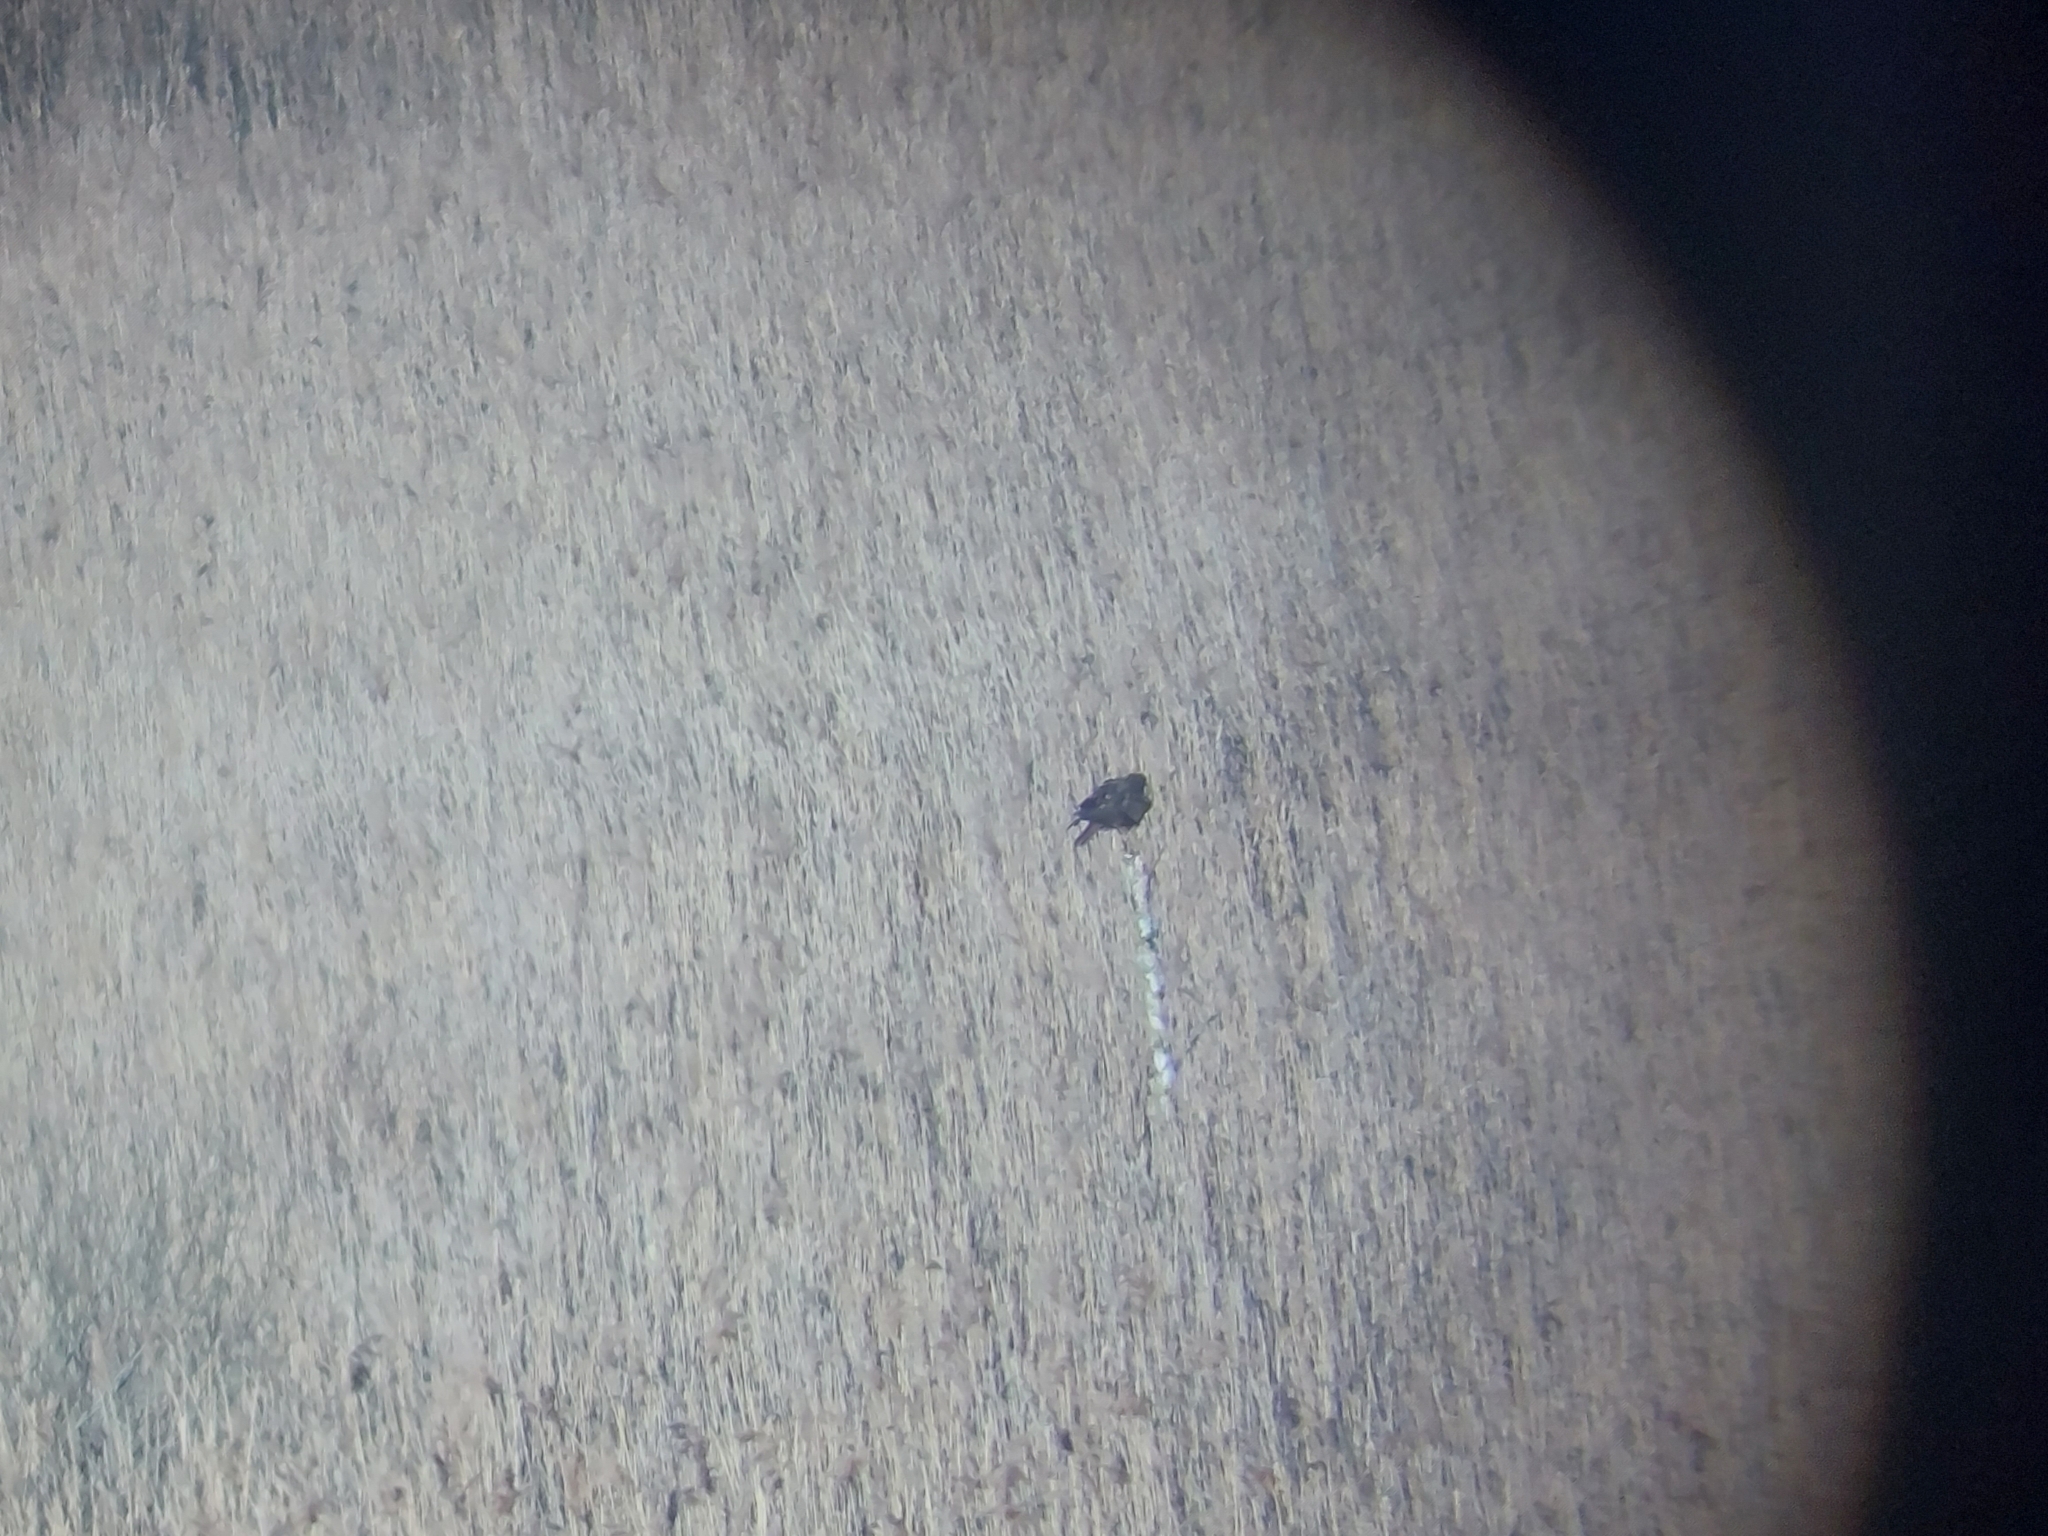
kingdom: Animalia
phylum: Chordata
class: Aves
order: Accipitriformes
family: Accipitridae
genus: Circus
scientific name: Circus aeruginosus
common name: Western marsh harrier
